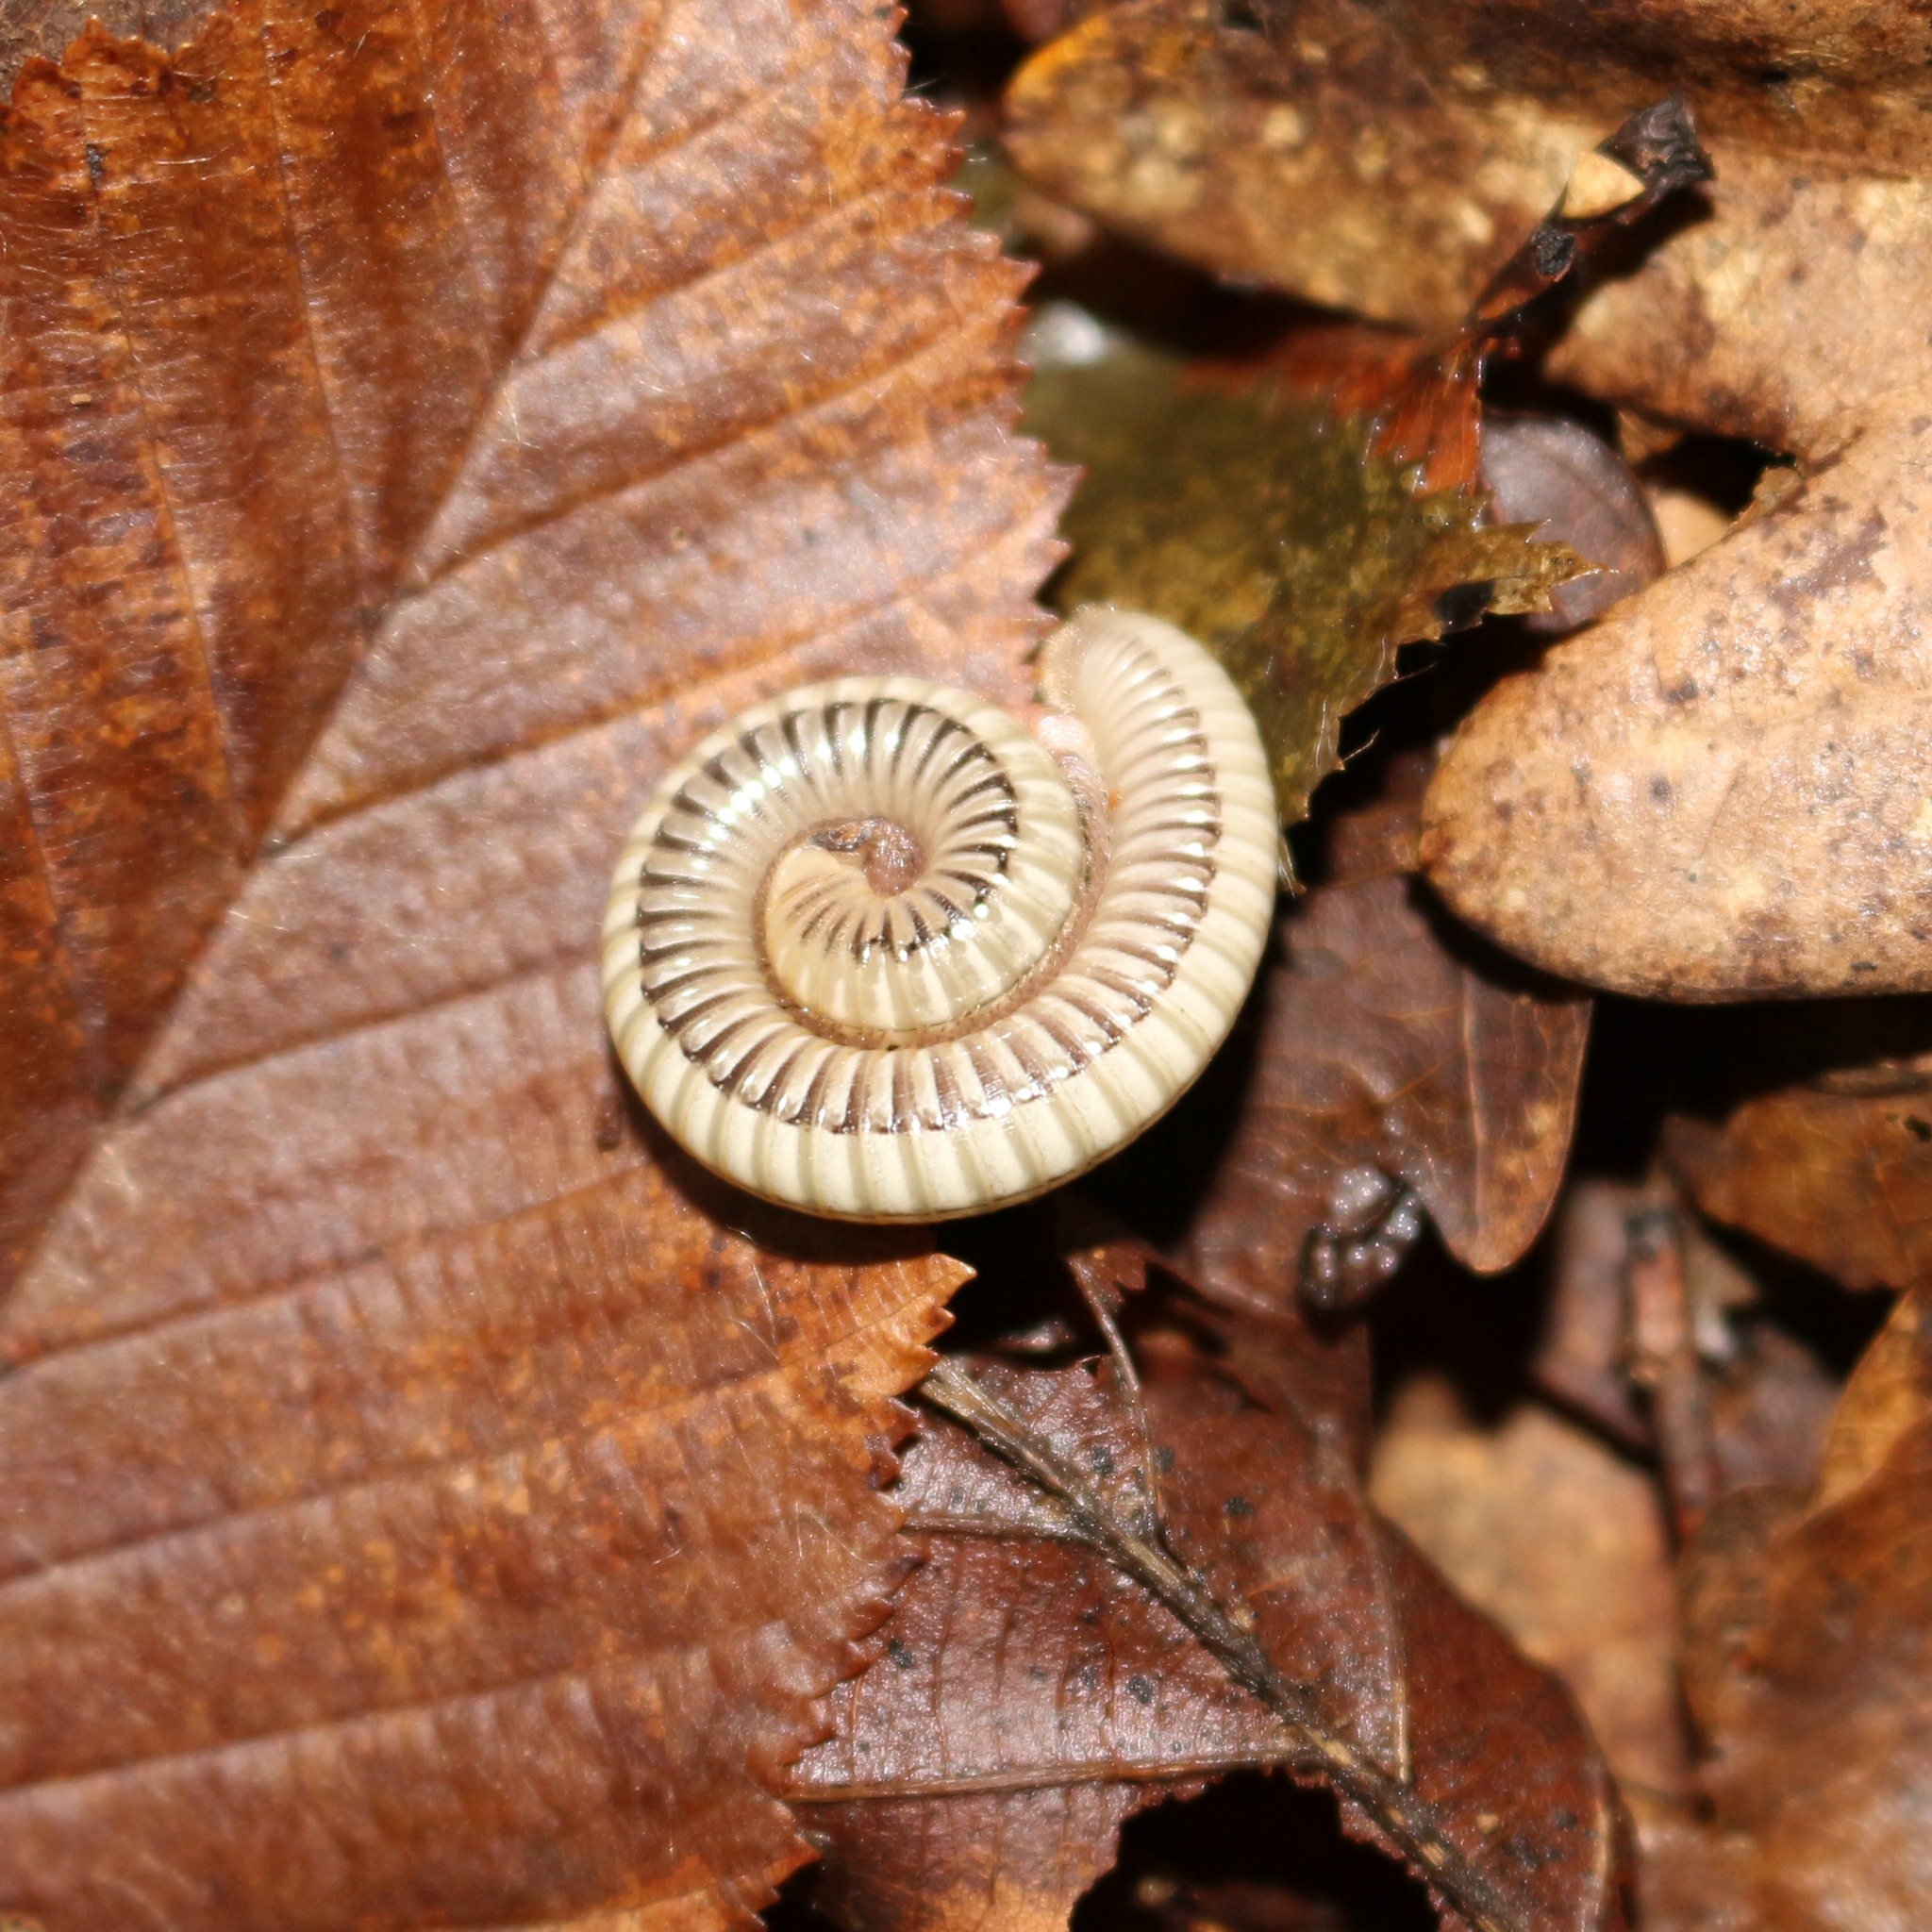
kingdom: Animalia
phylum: Arthropoda
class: Diplopoda
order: Julida
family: Julidae
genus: Pachyiulus
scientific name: Pachyiulus krivolutskyi
